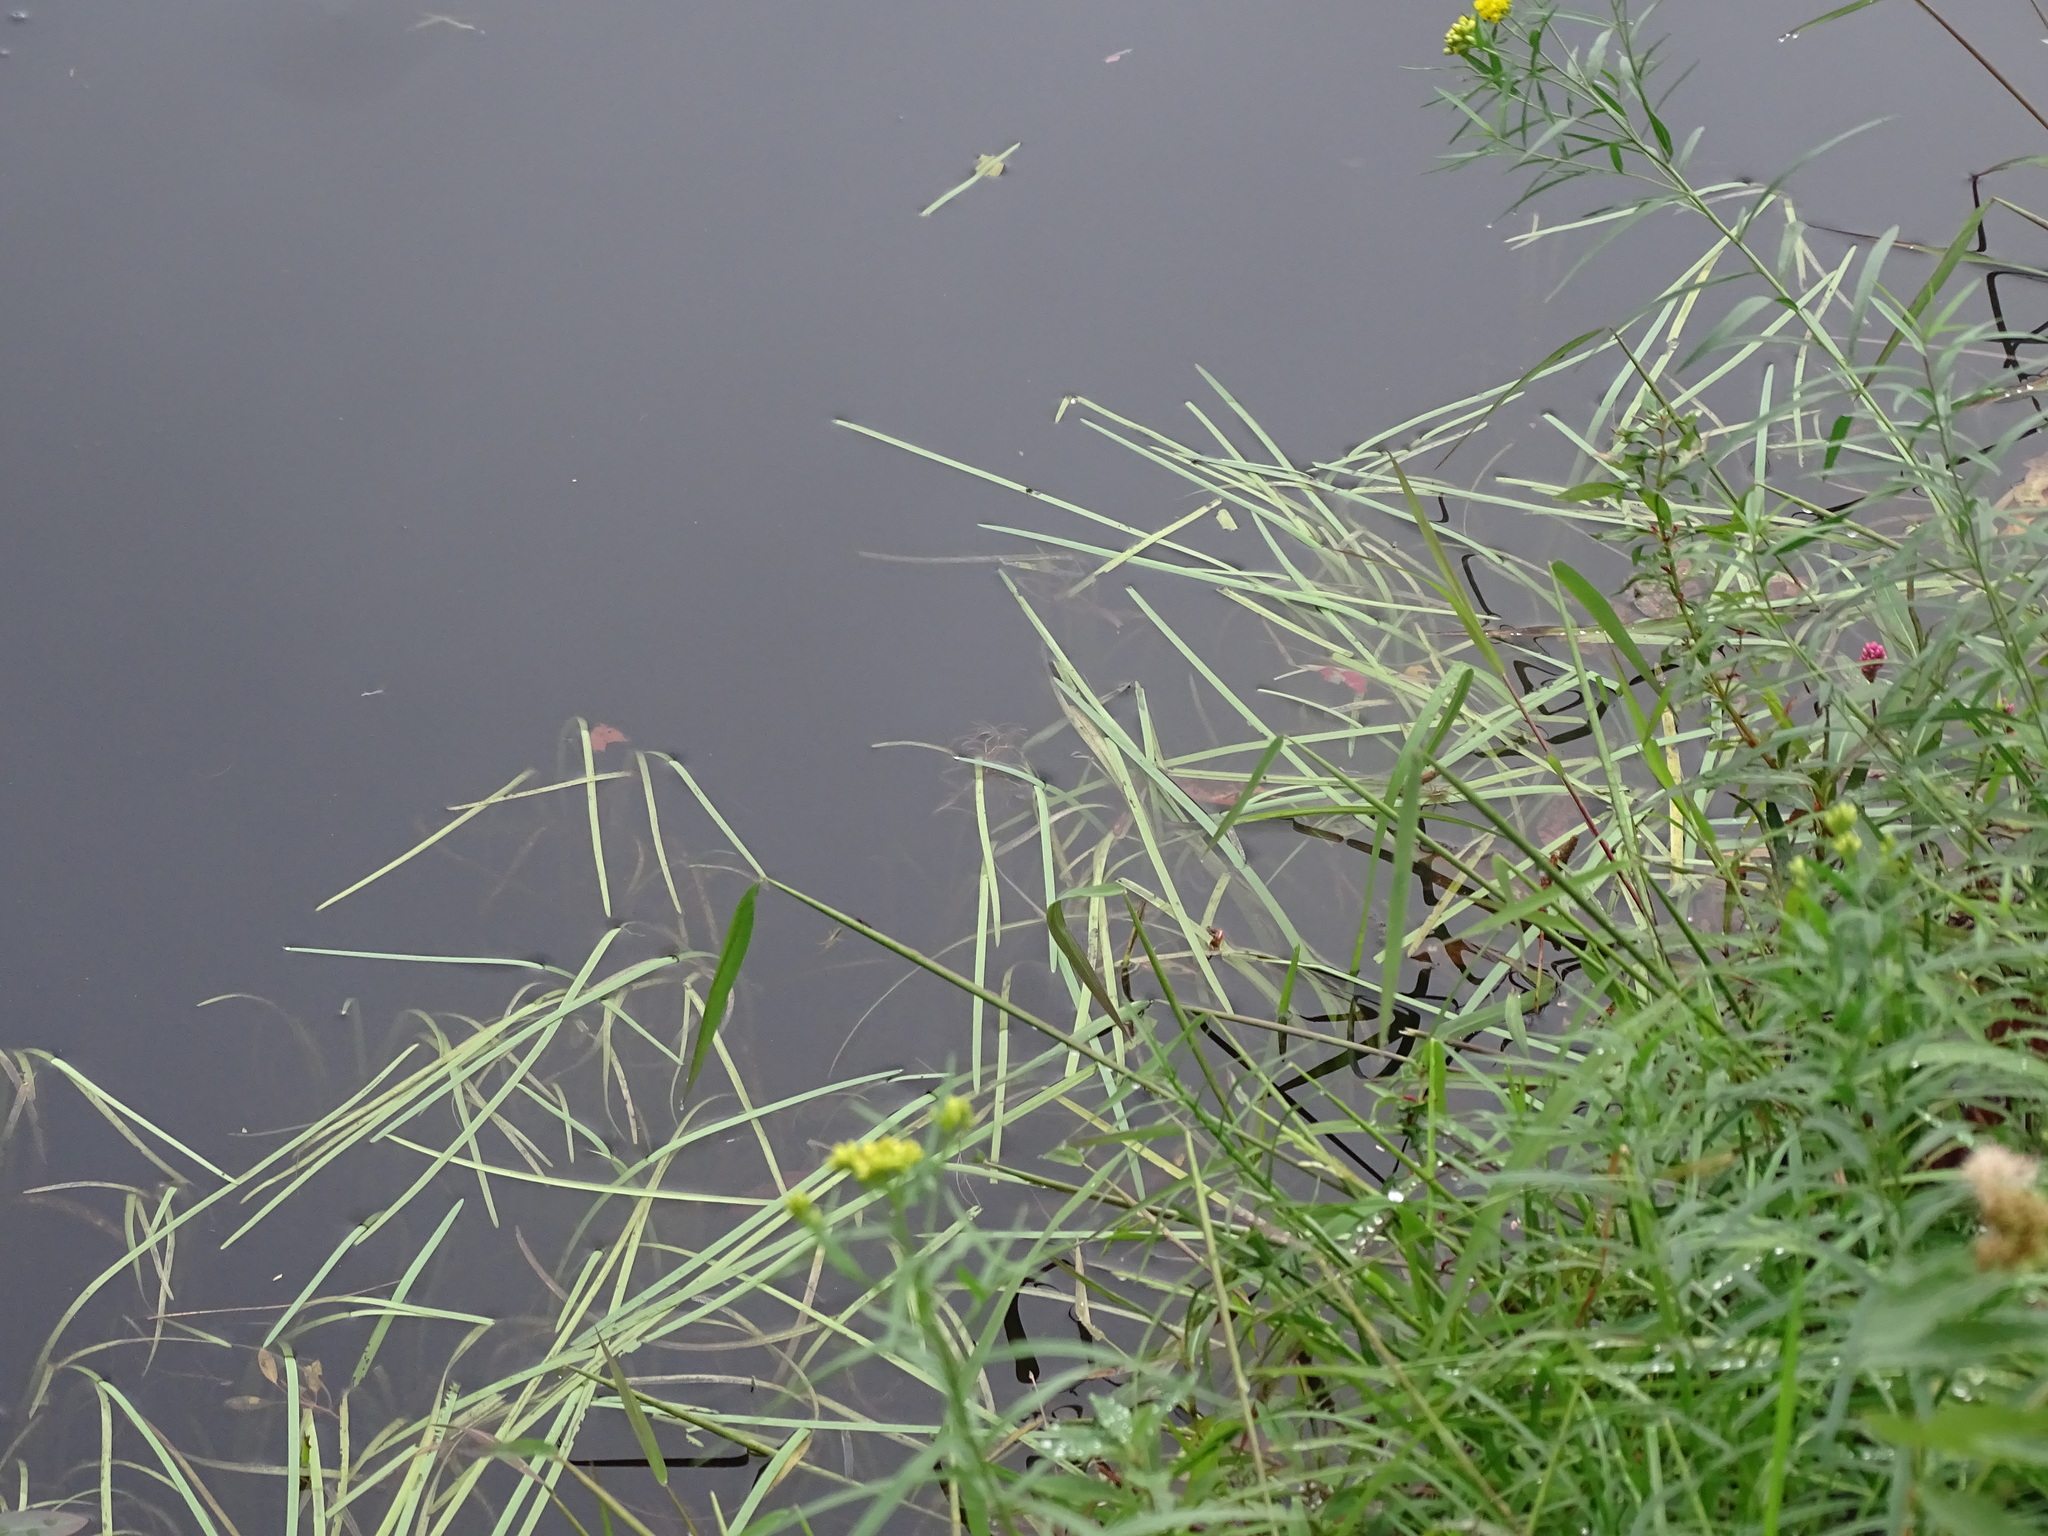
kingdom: Plantae
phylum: Tracheophyta
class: Liliopsida
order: Poales
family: Typhaceae
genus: Sparganium
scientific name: Sparganium fluctuans
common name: Floating burreed
